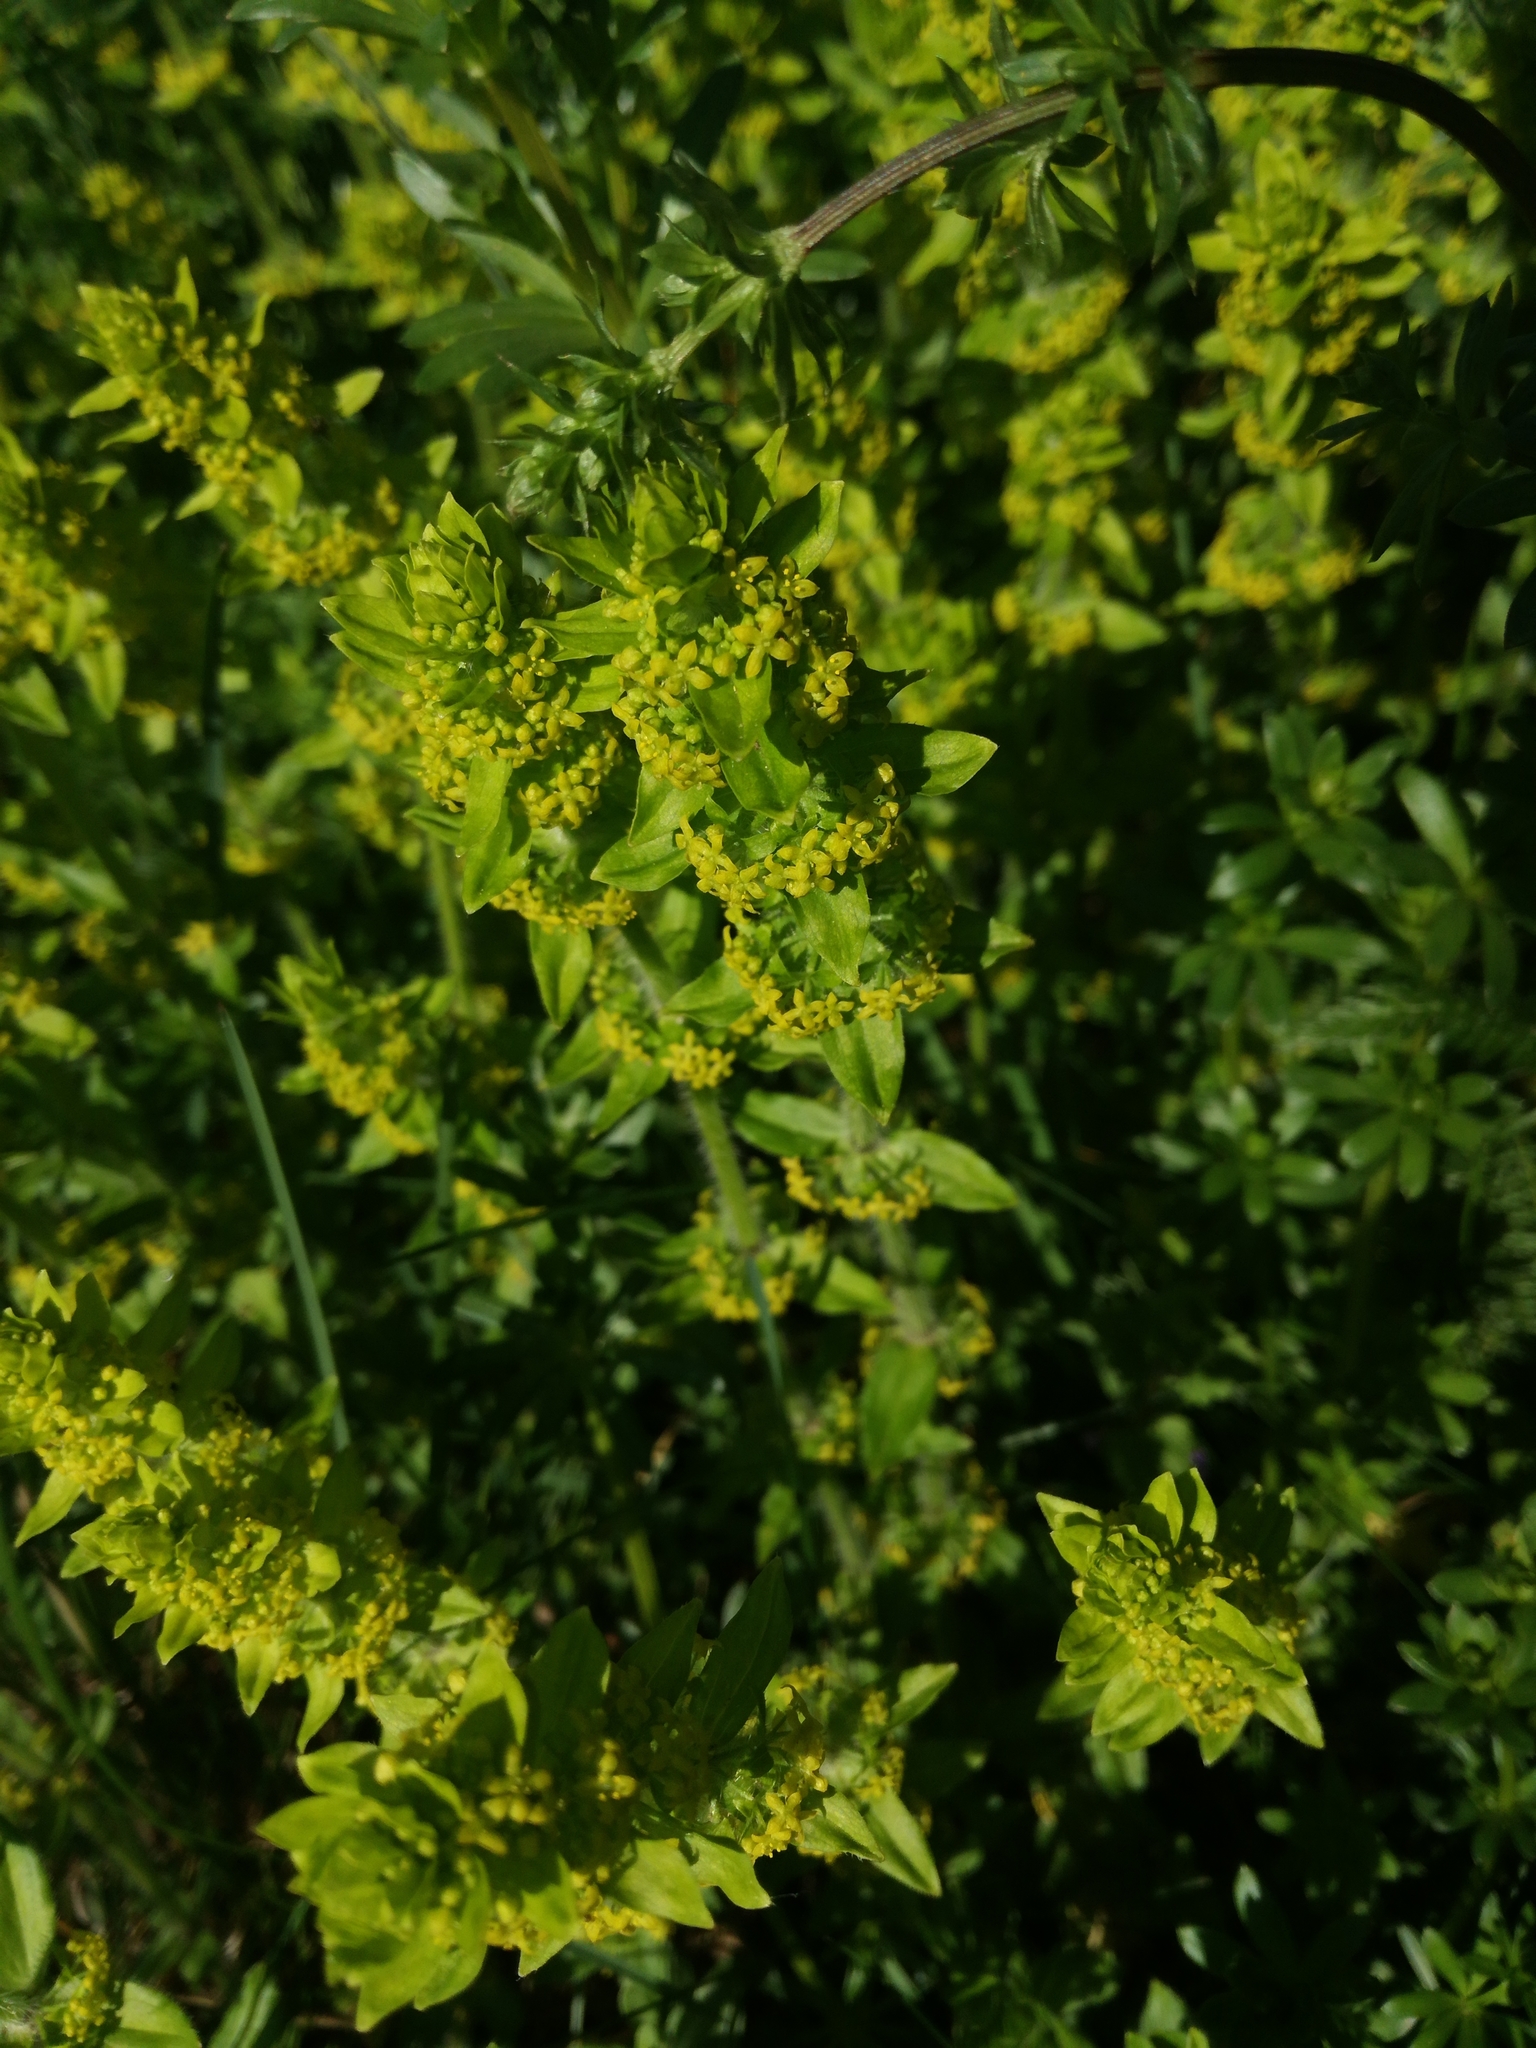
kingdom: Plantae
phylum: Tracheophyta
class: Magnoliopsida
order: Gentianales
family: Rubiaceae
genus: Cruciata
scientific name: Cruciata laevipes
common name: Crosswort
